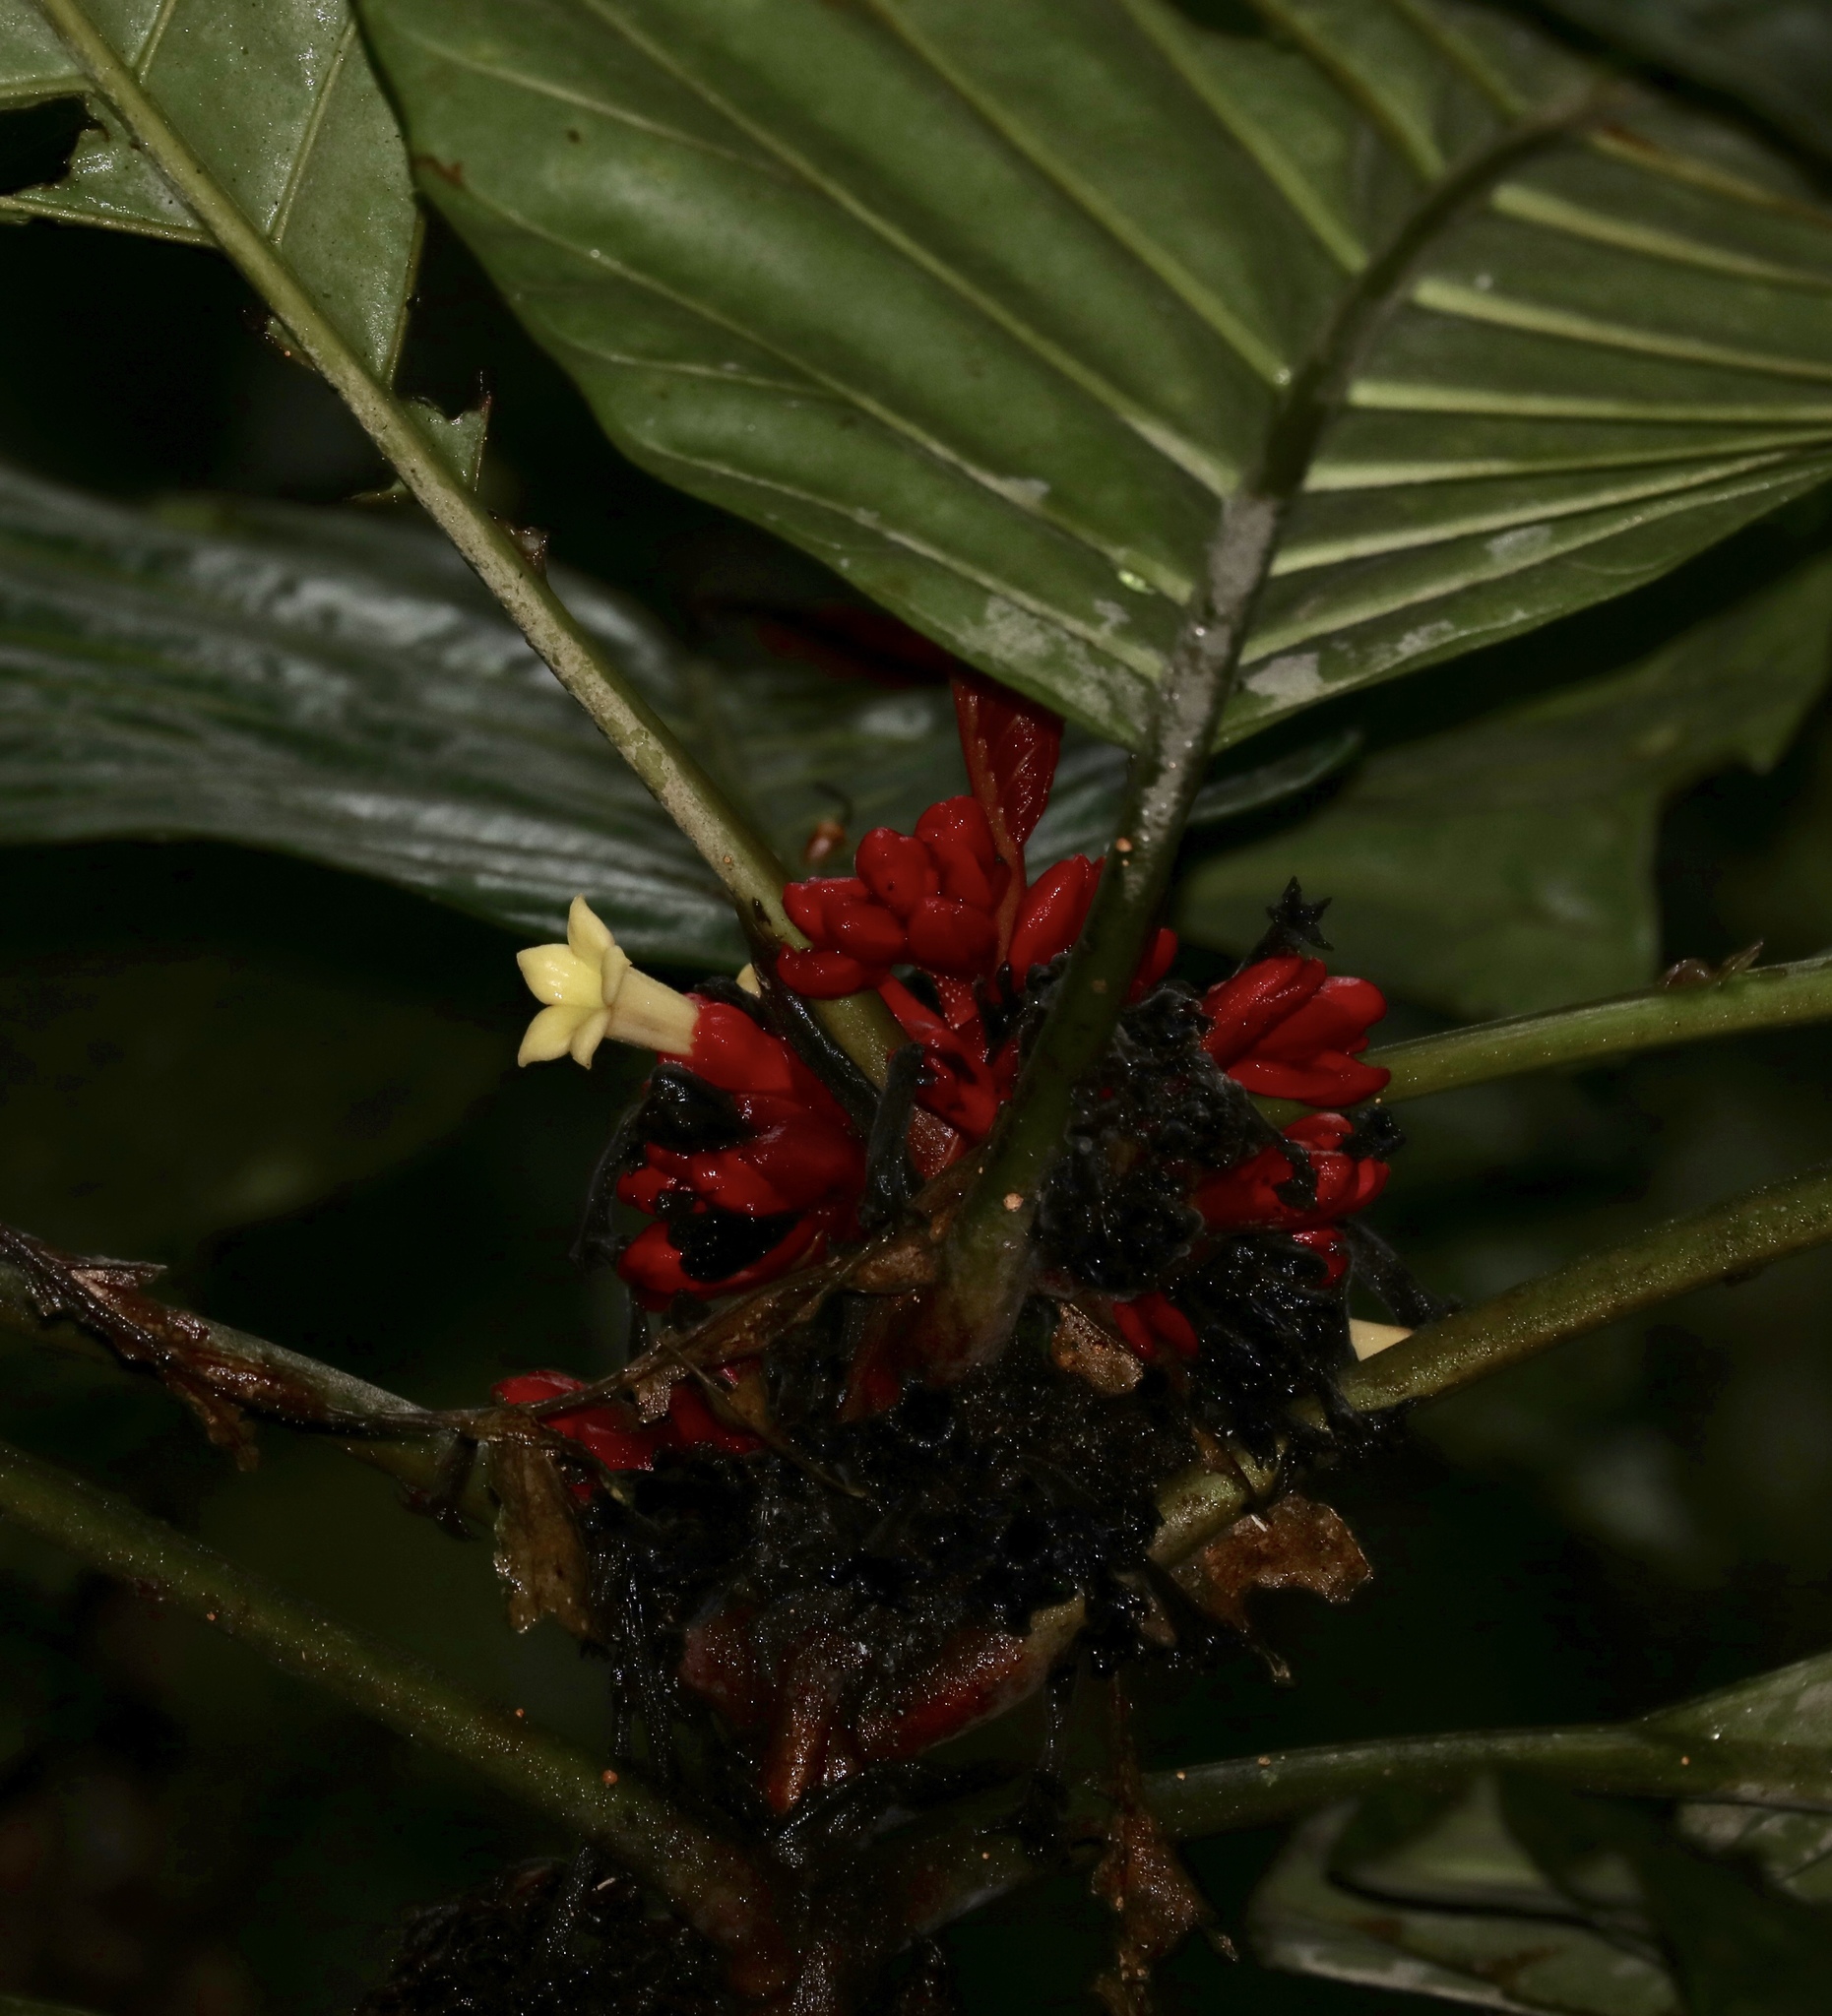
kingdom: Plantae
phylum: Tracheophyta
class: Magnoliopsida
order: Gentianales
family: Rubiaceae
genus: Pentagonia
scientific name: Pentagonia macrophylla
